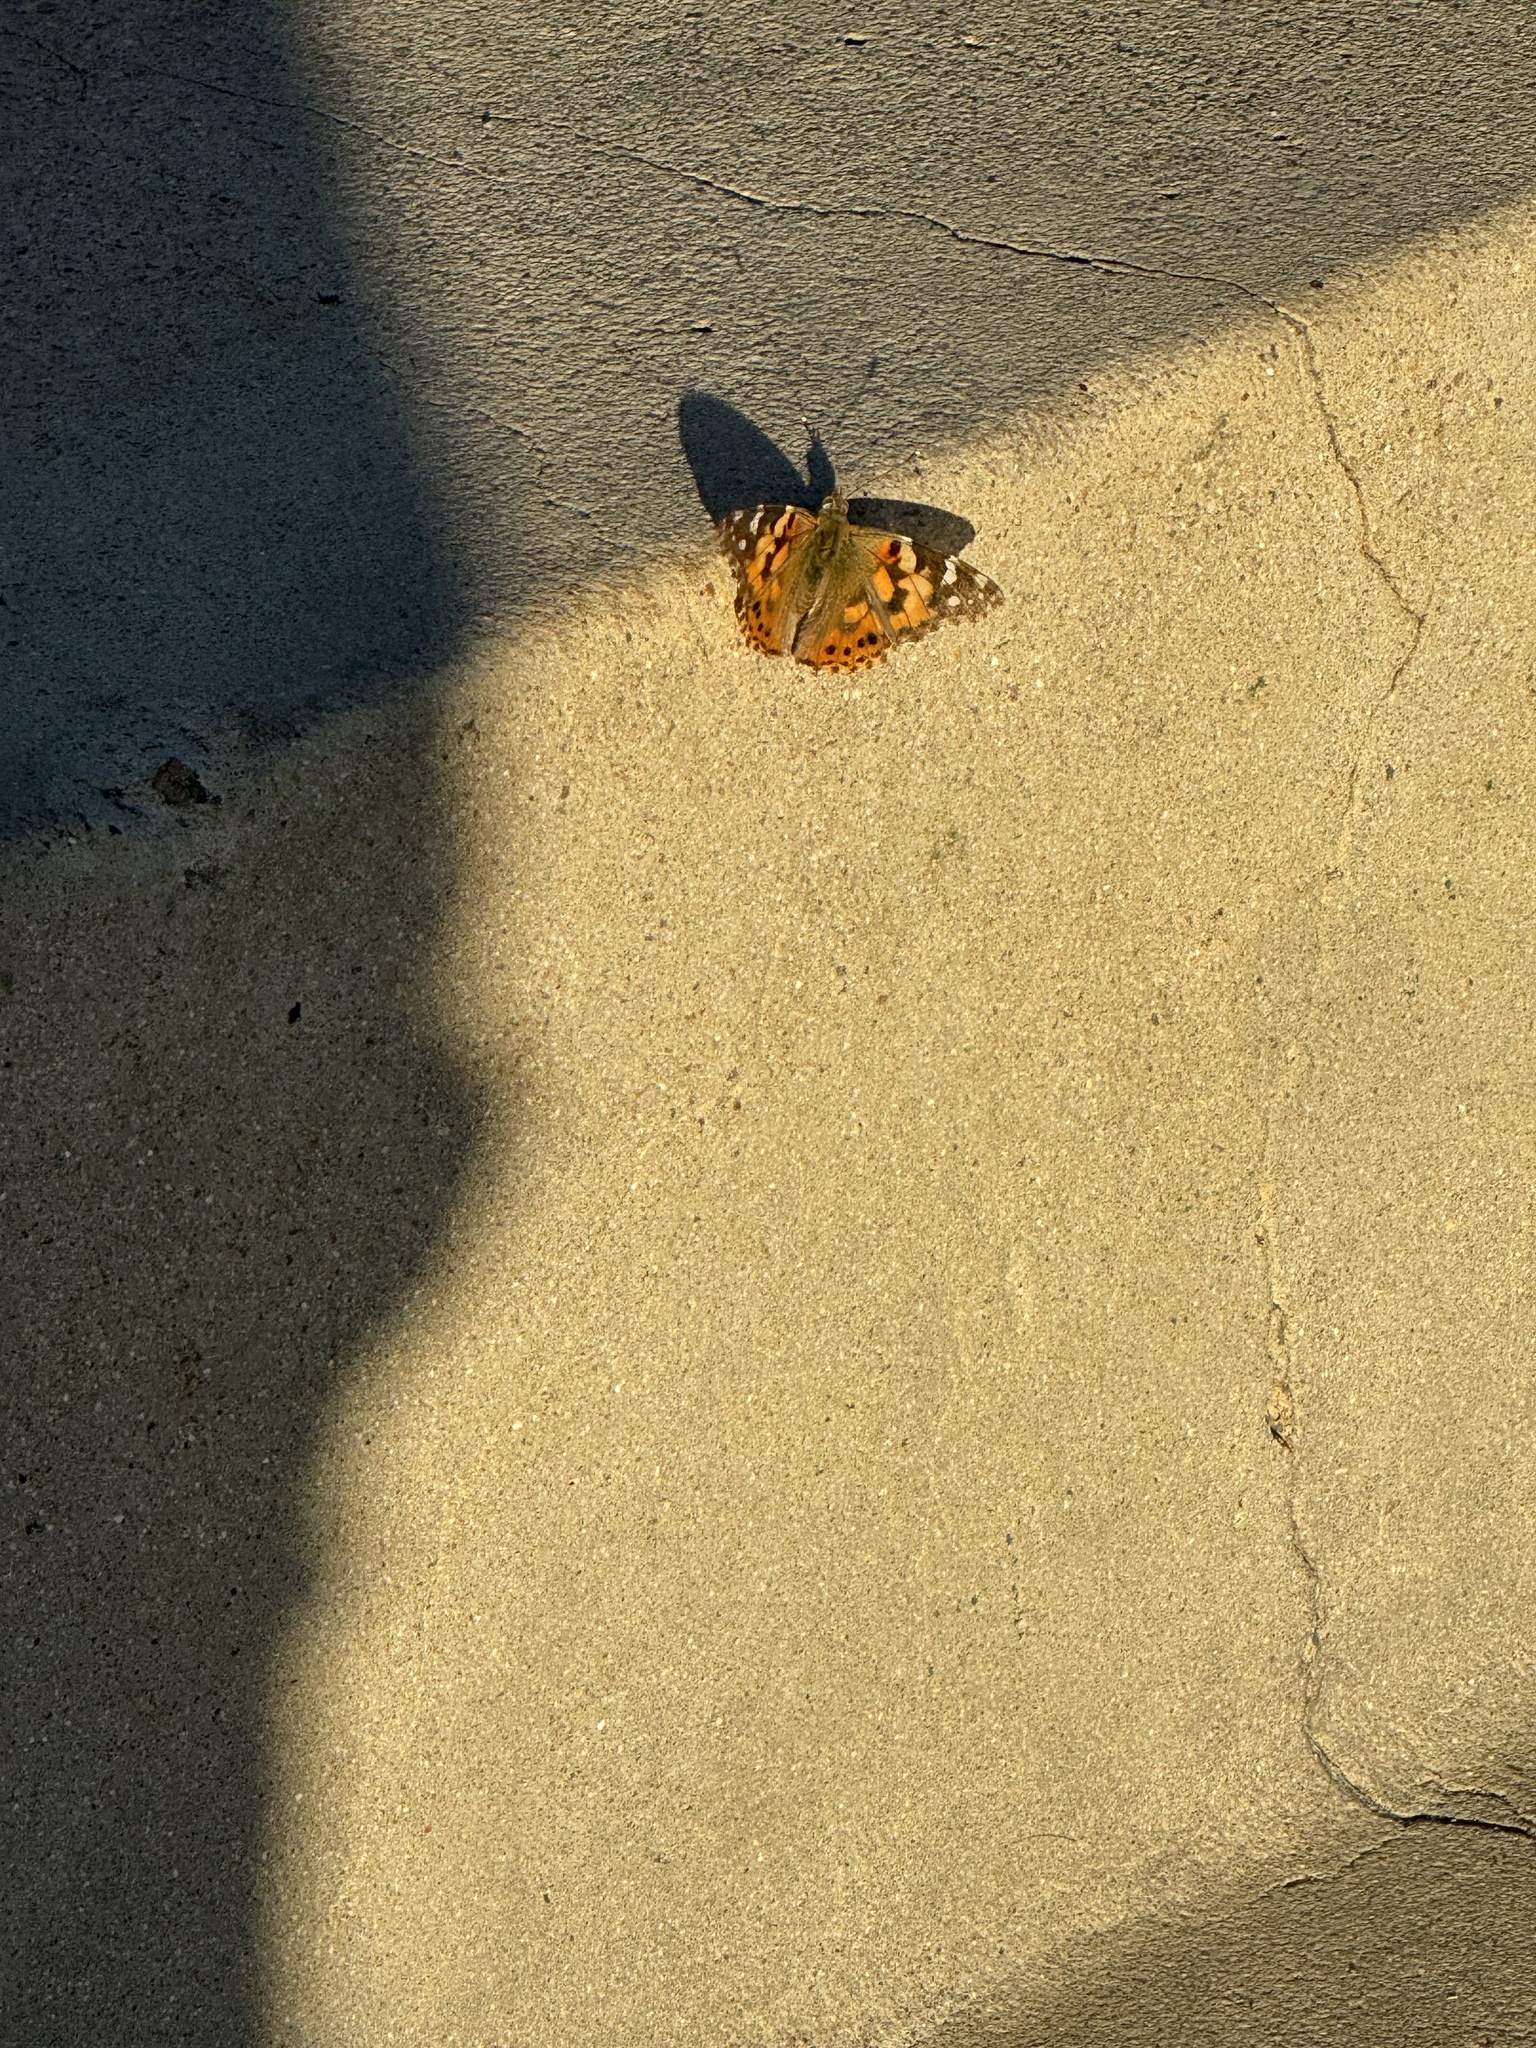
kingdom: Animalia
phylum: Arthropoda
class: Insecta
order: Lepidoptera
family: Nymphalidae
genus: Vanessa
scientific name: Vanessa cardui
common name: Painted lady
